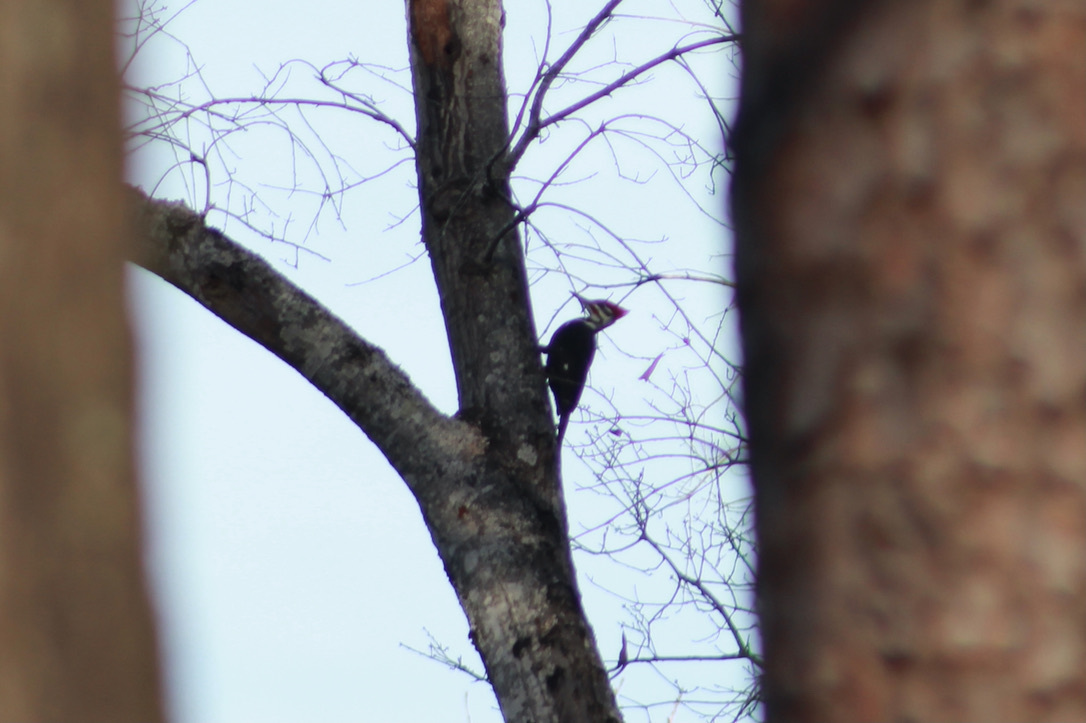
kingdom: Animalia
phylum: Chordata
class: Aves
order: Piciformes
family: Picidae
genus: Dryocopus
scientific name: Dryocopus pileatus
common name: Pileated woodpecker
